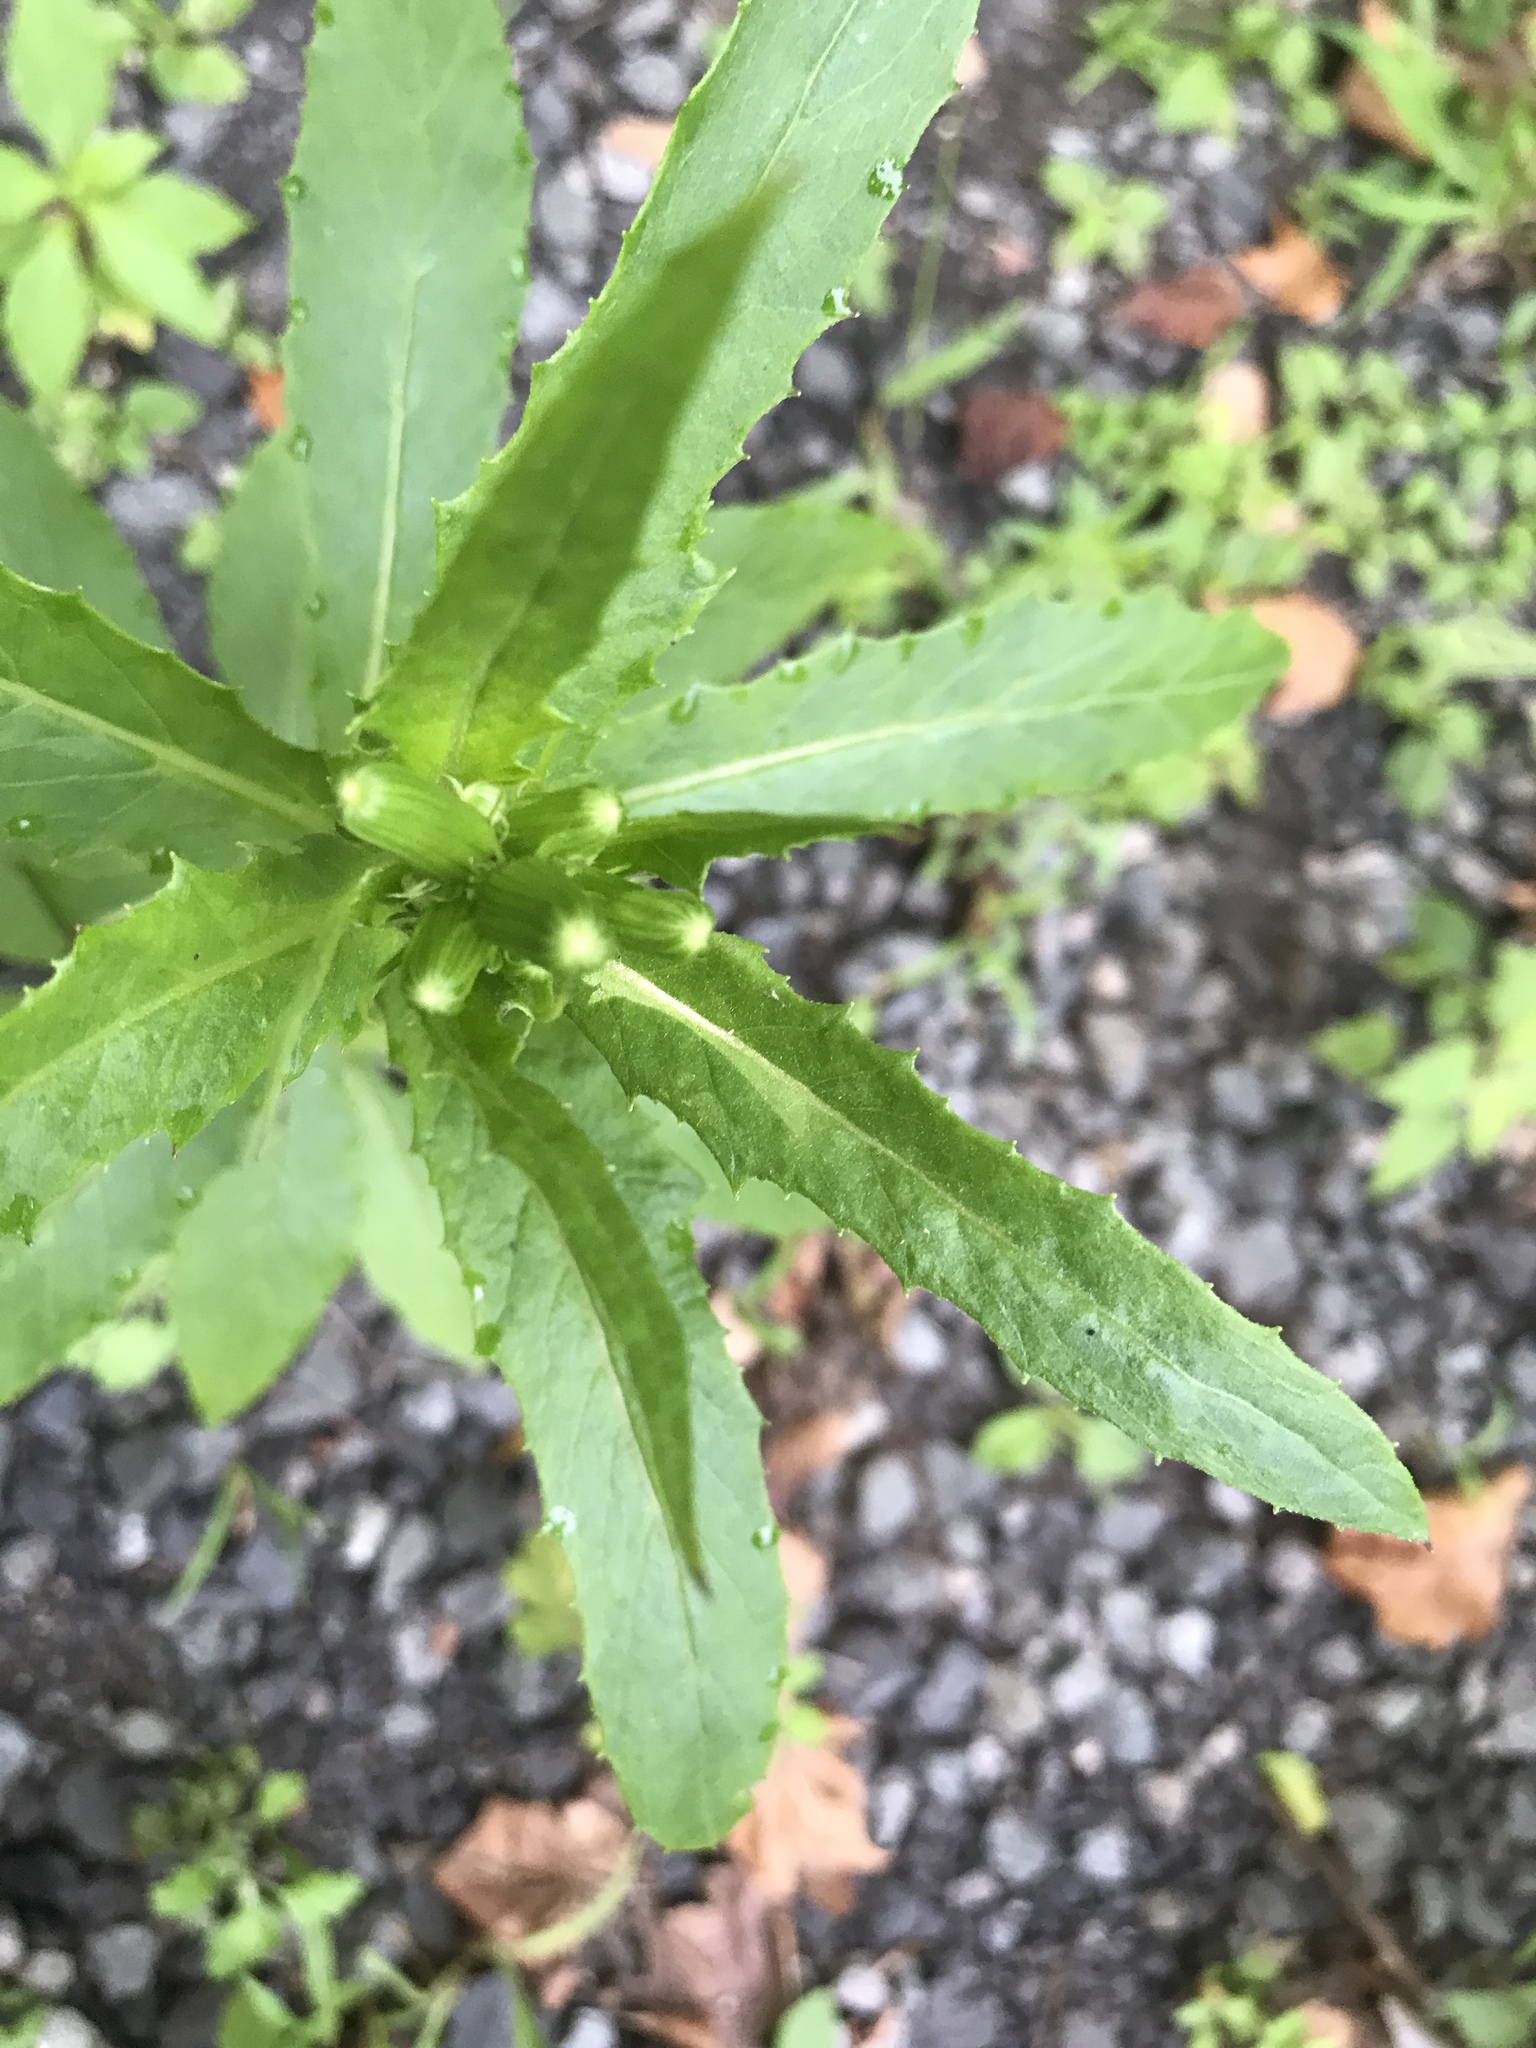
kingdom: Plantae
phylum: Tracheophyta
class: Magnoliopsida
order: Asterales
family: Asteraceae
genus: Erechtites
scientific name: Erechtites hieraciifolius
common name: American burnweed
